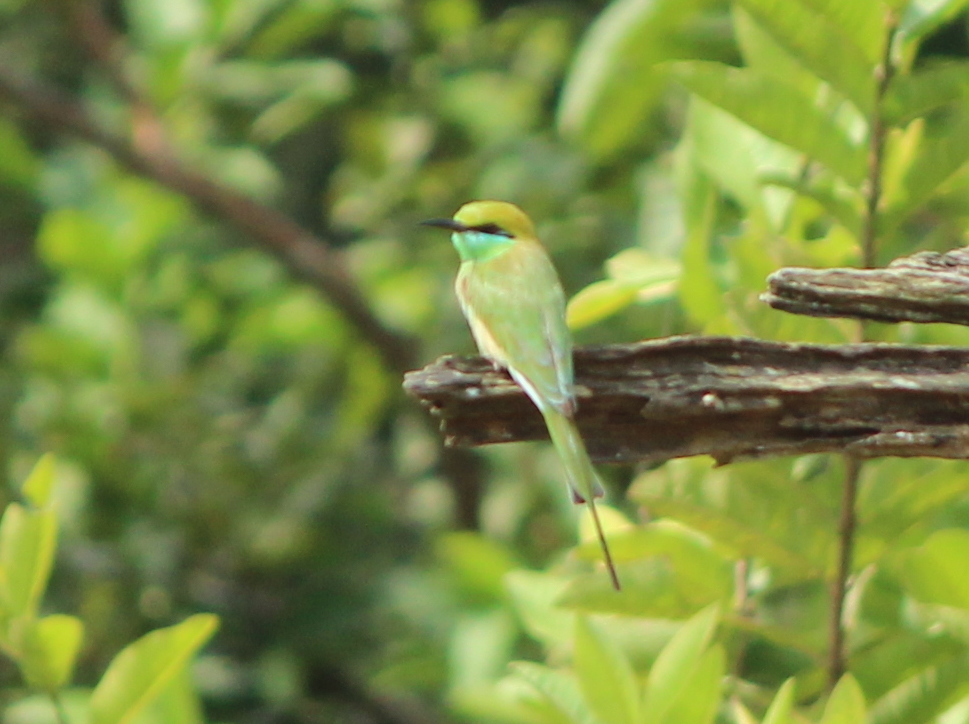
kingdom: Animalia
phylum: Chordata
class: Aves
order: Coraciiformes
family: Meropidae
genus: Merops
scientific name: Merops orientalis
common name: Green bee-eater
